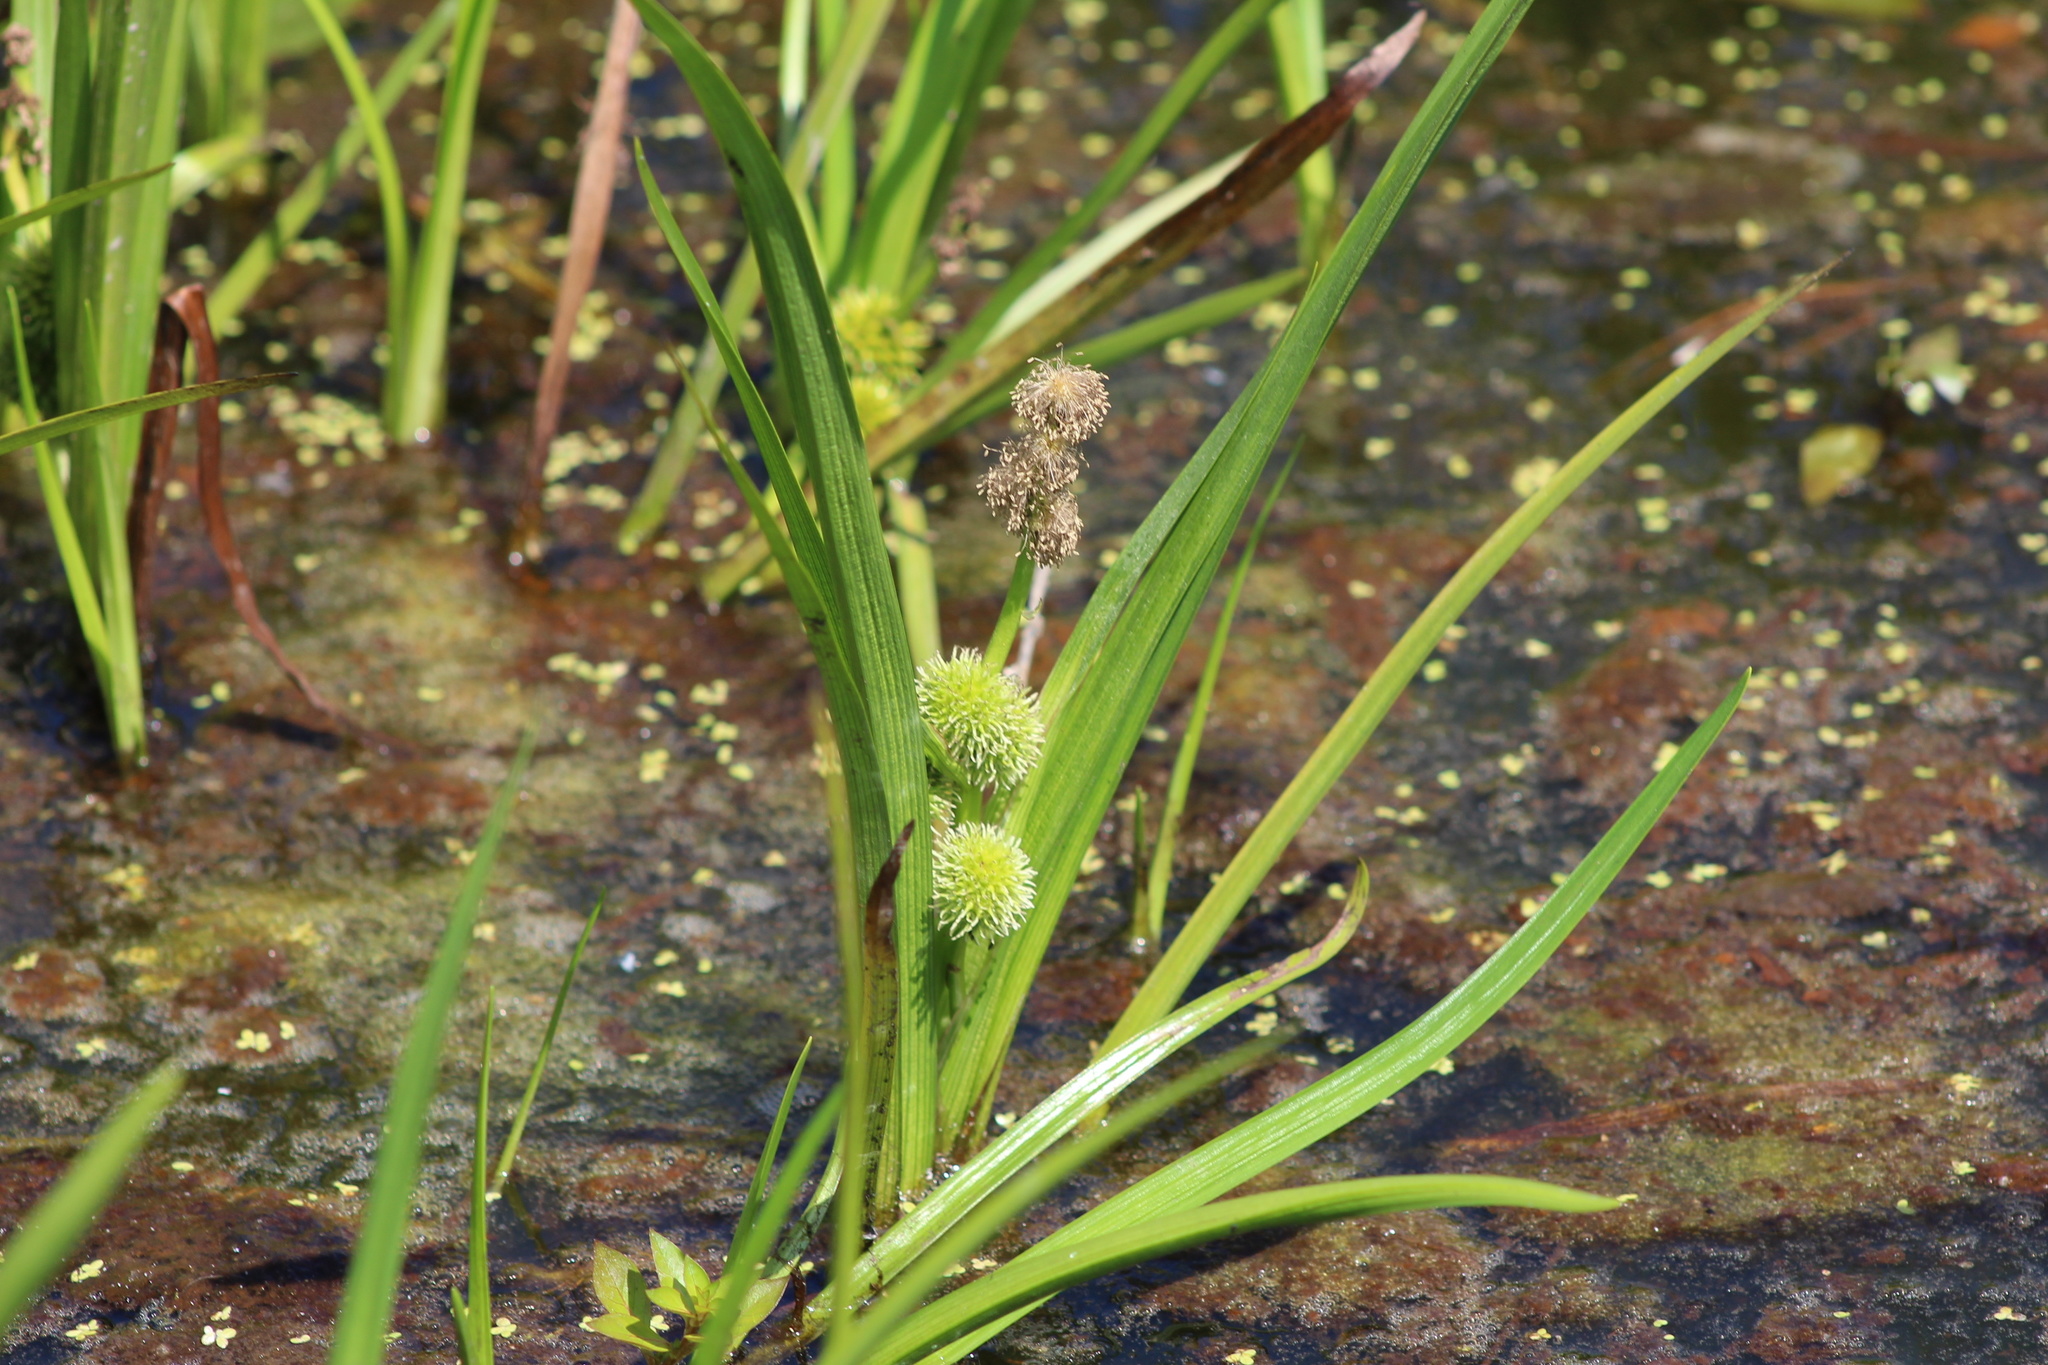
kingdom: Plantae
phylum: Tracheophyta
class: Liliopsida
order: Poales
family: Typhaceae
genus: Sparganium
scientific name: Sparganium emersum
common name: Unbranched bur-reed
